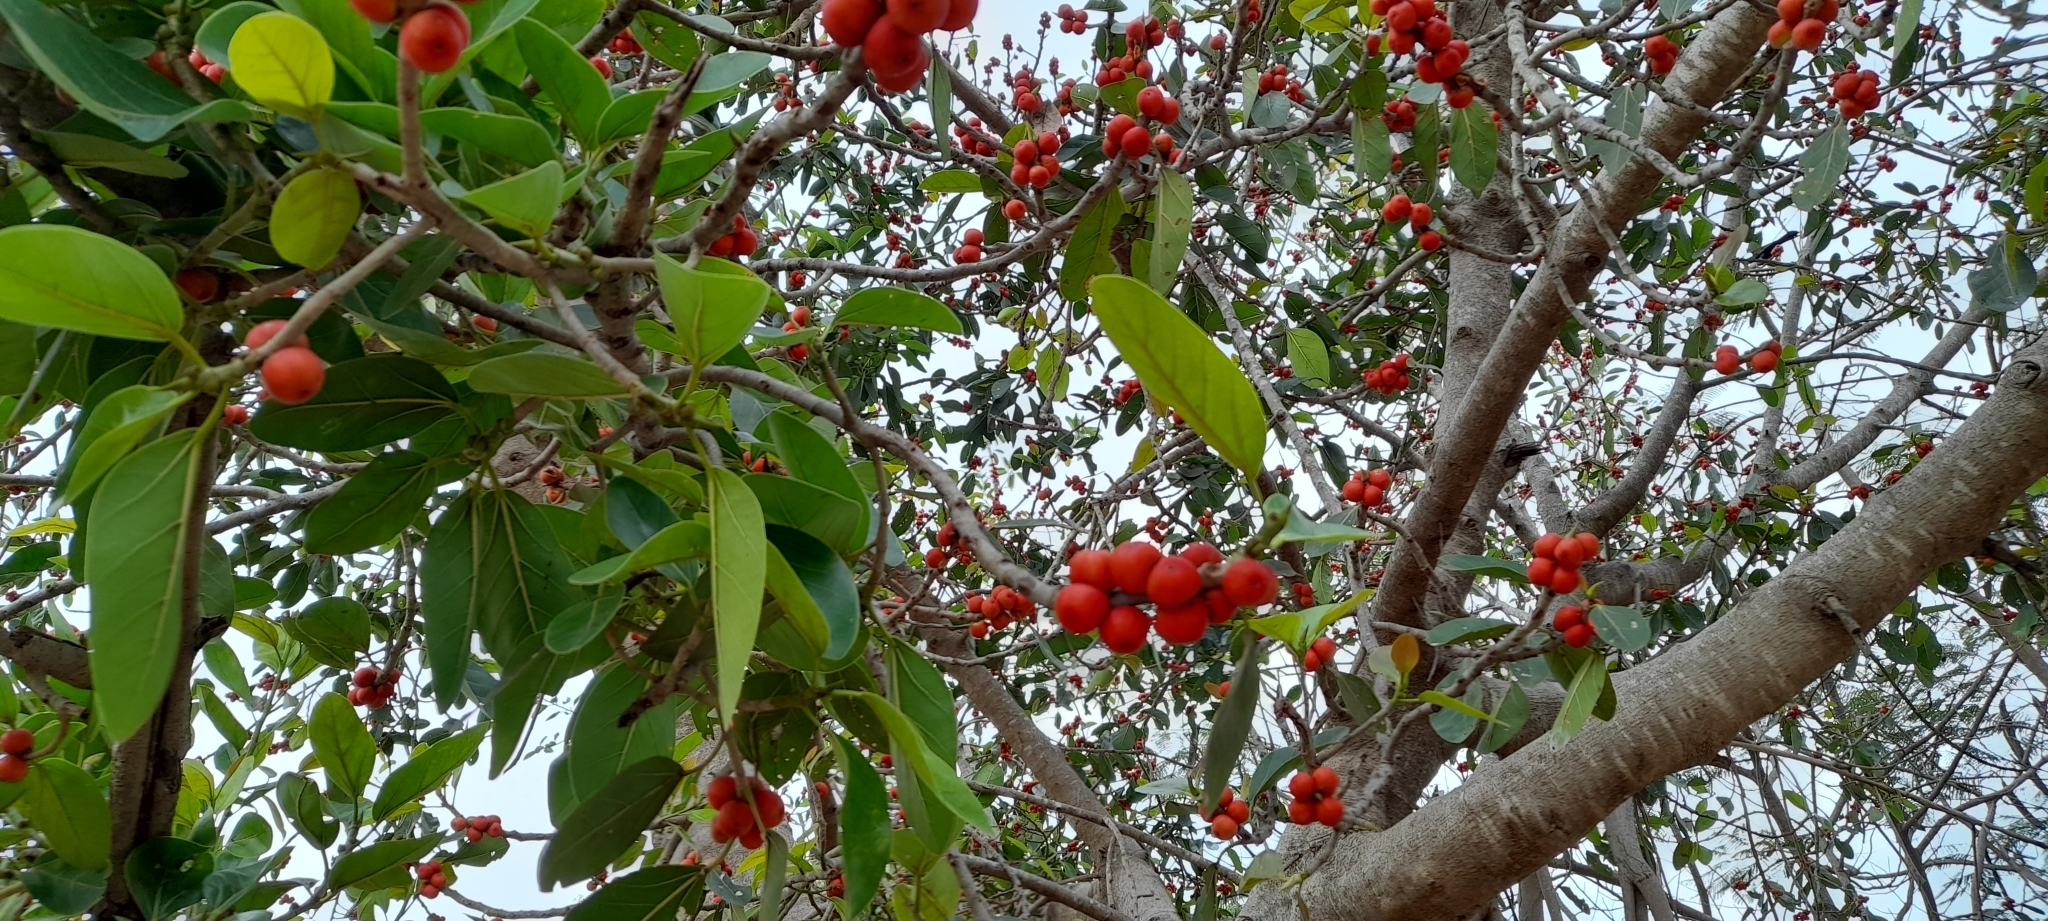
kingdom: Plantae
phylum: Tracheophyta
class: Magnoliopsida
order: Rosales
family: Moraceae
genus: Ficus
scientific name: Ficus benghalensis
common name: Indian banyan
